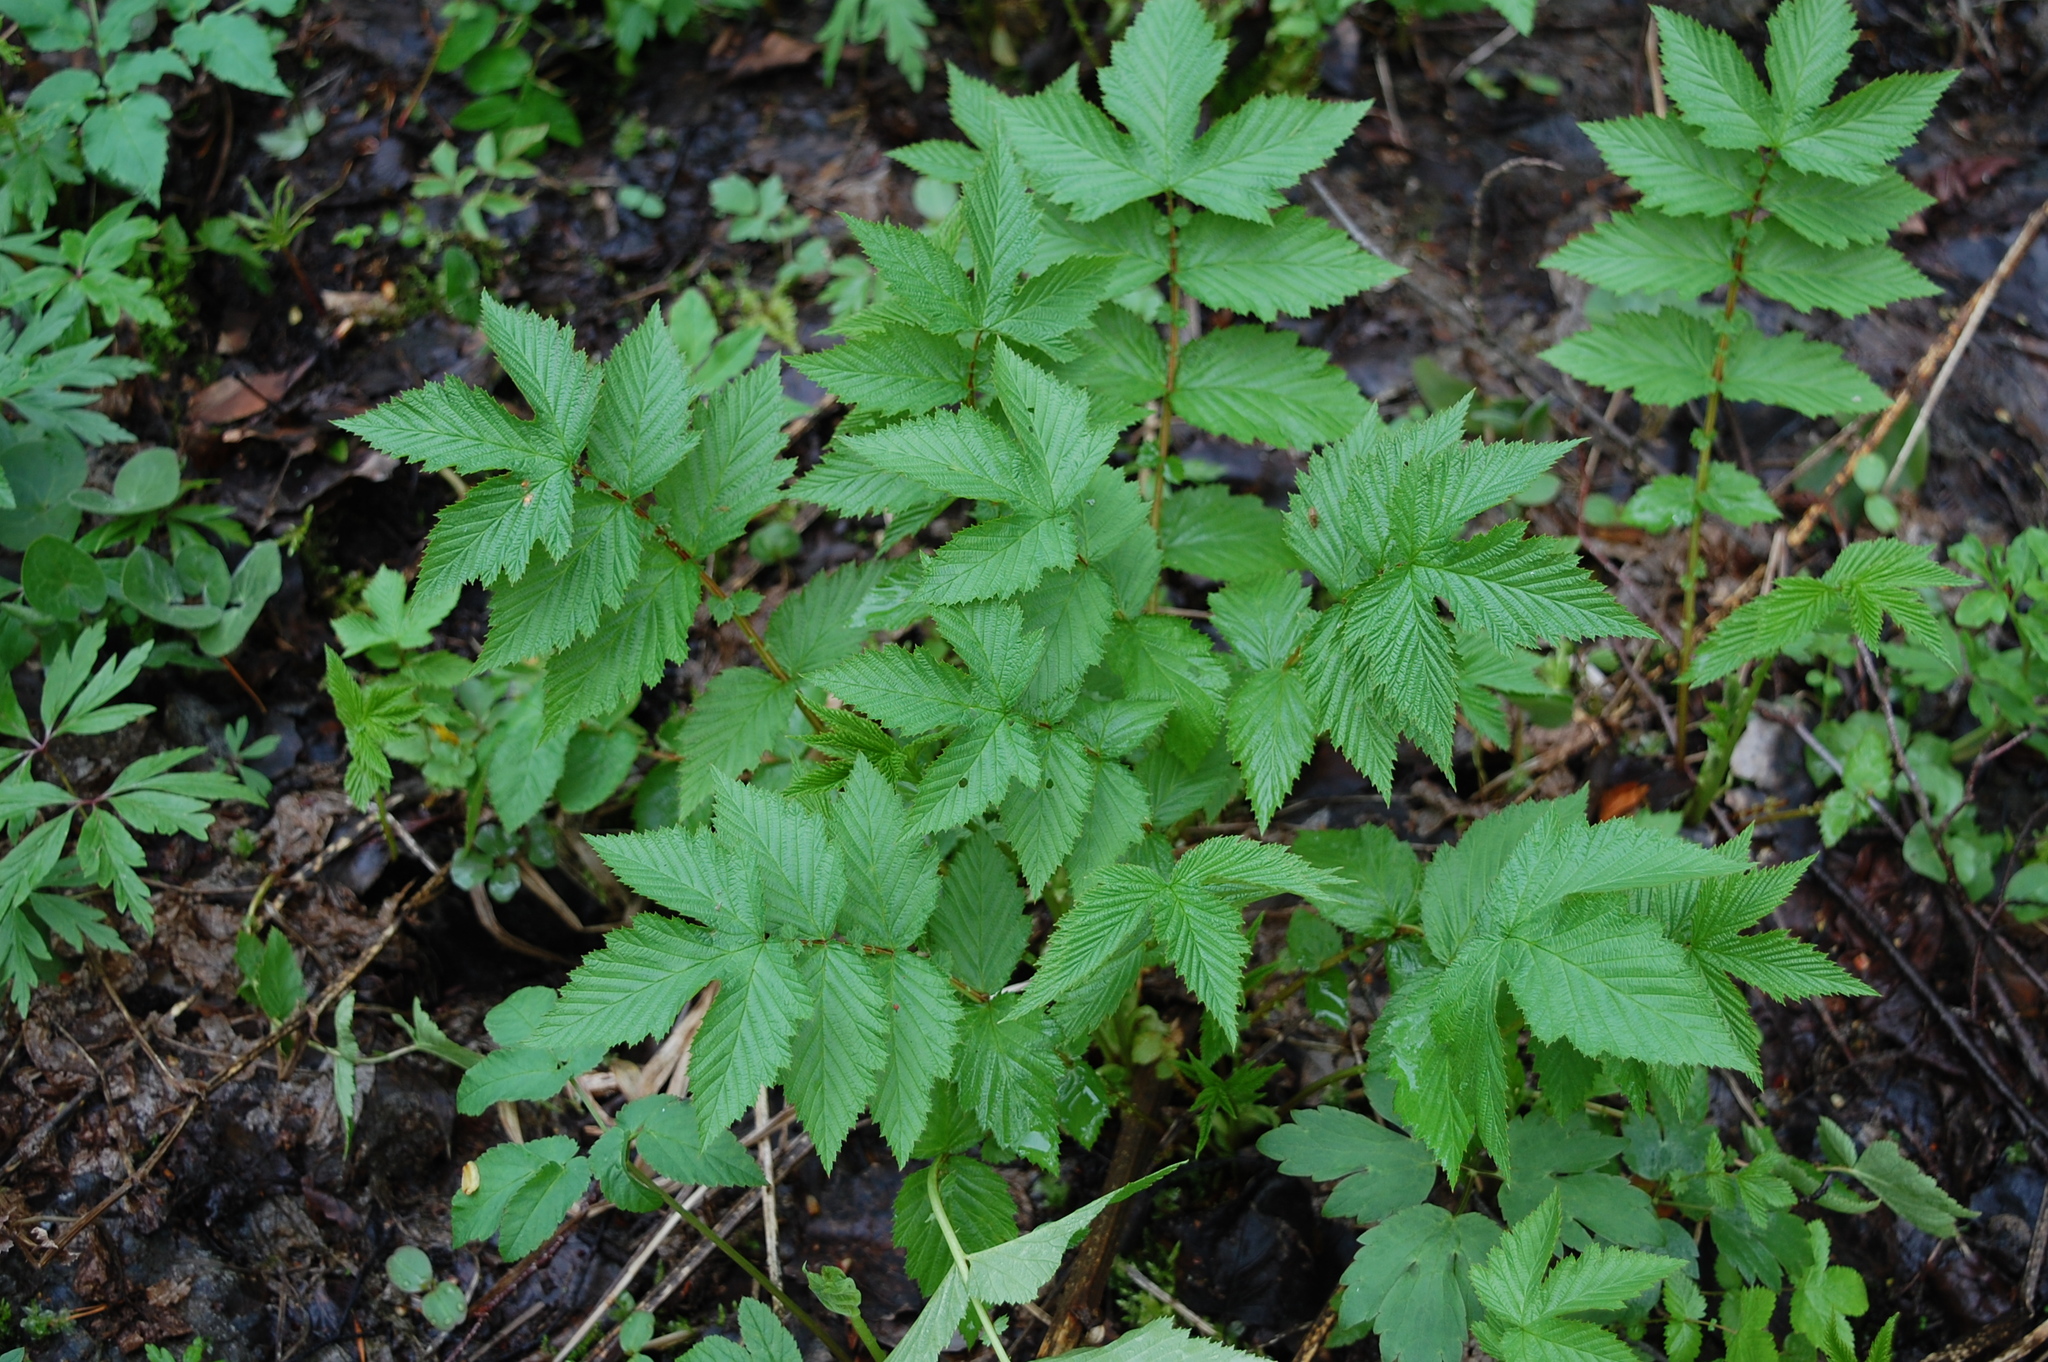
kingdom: Plantae
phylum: Tracheophyta
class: Magnoliopsida
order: Rosales
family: Rosaceae
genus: Filipendula
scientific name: Filipendula ulmaria
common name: Meadowsweet
